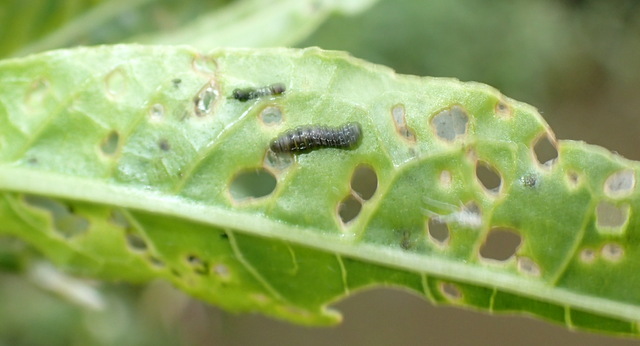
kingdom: Animalia
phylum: Arthropoda
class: Insecta
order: Coleoptera
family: Chrysomelidae
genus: Agasicles
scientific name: Agasicles hygrophila
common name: Alligatorweed flea beetle
